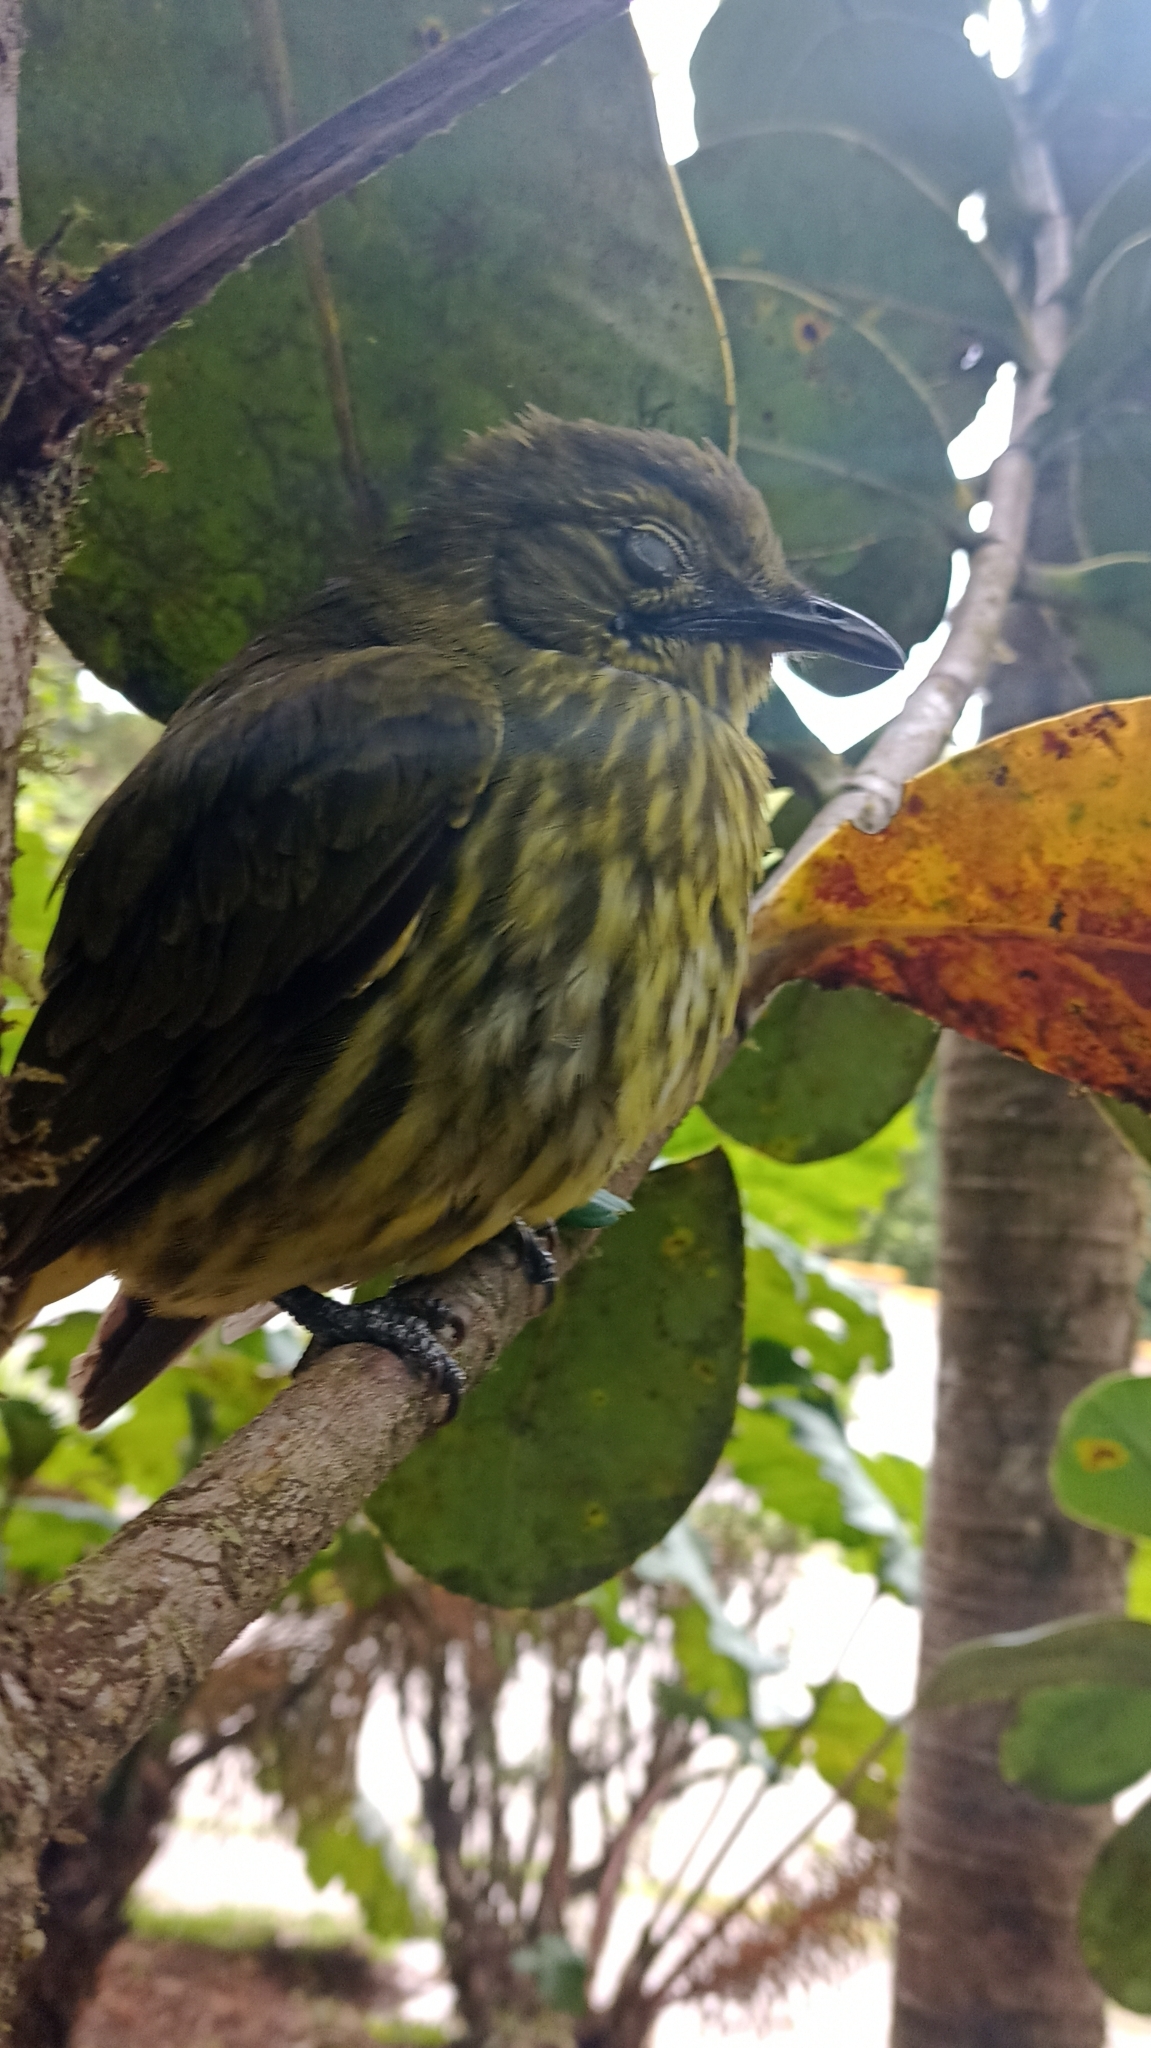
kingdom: Animalia
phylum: Chordata
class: Aves
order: Passeriformes
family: Cotingidae
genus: Procnias
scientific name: Procnias tricarunculatus
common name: Three-wattled bellbird
